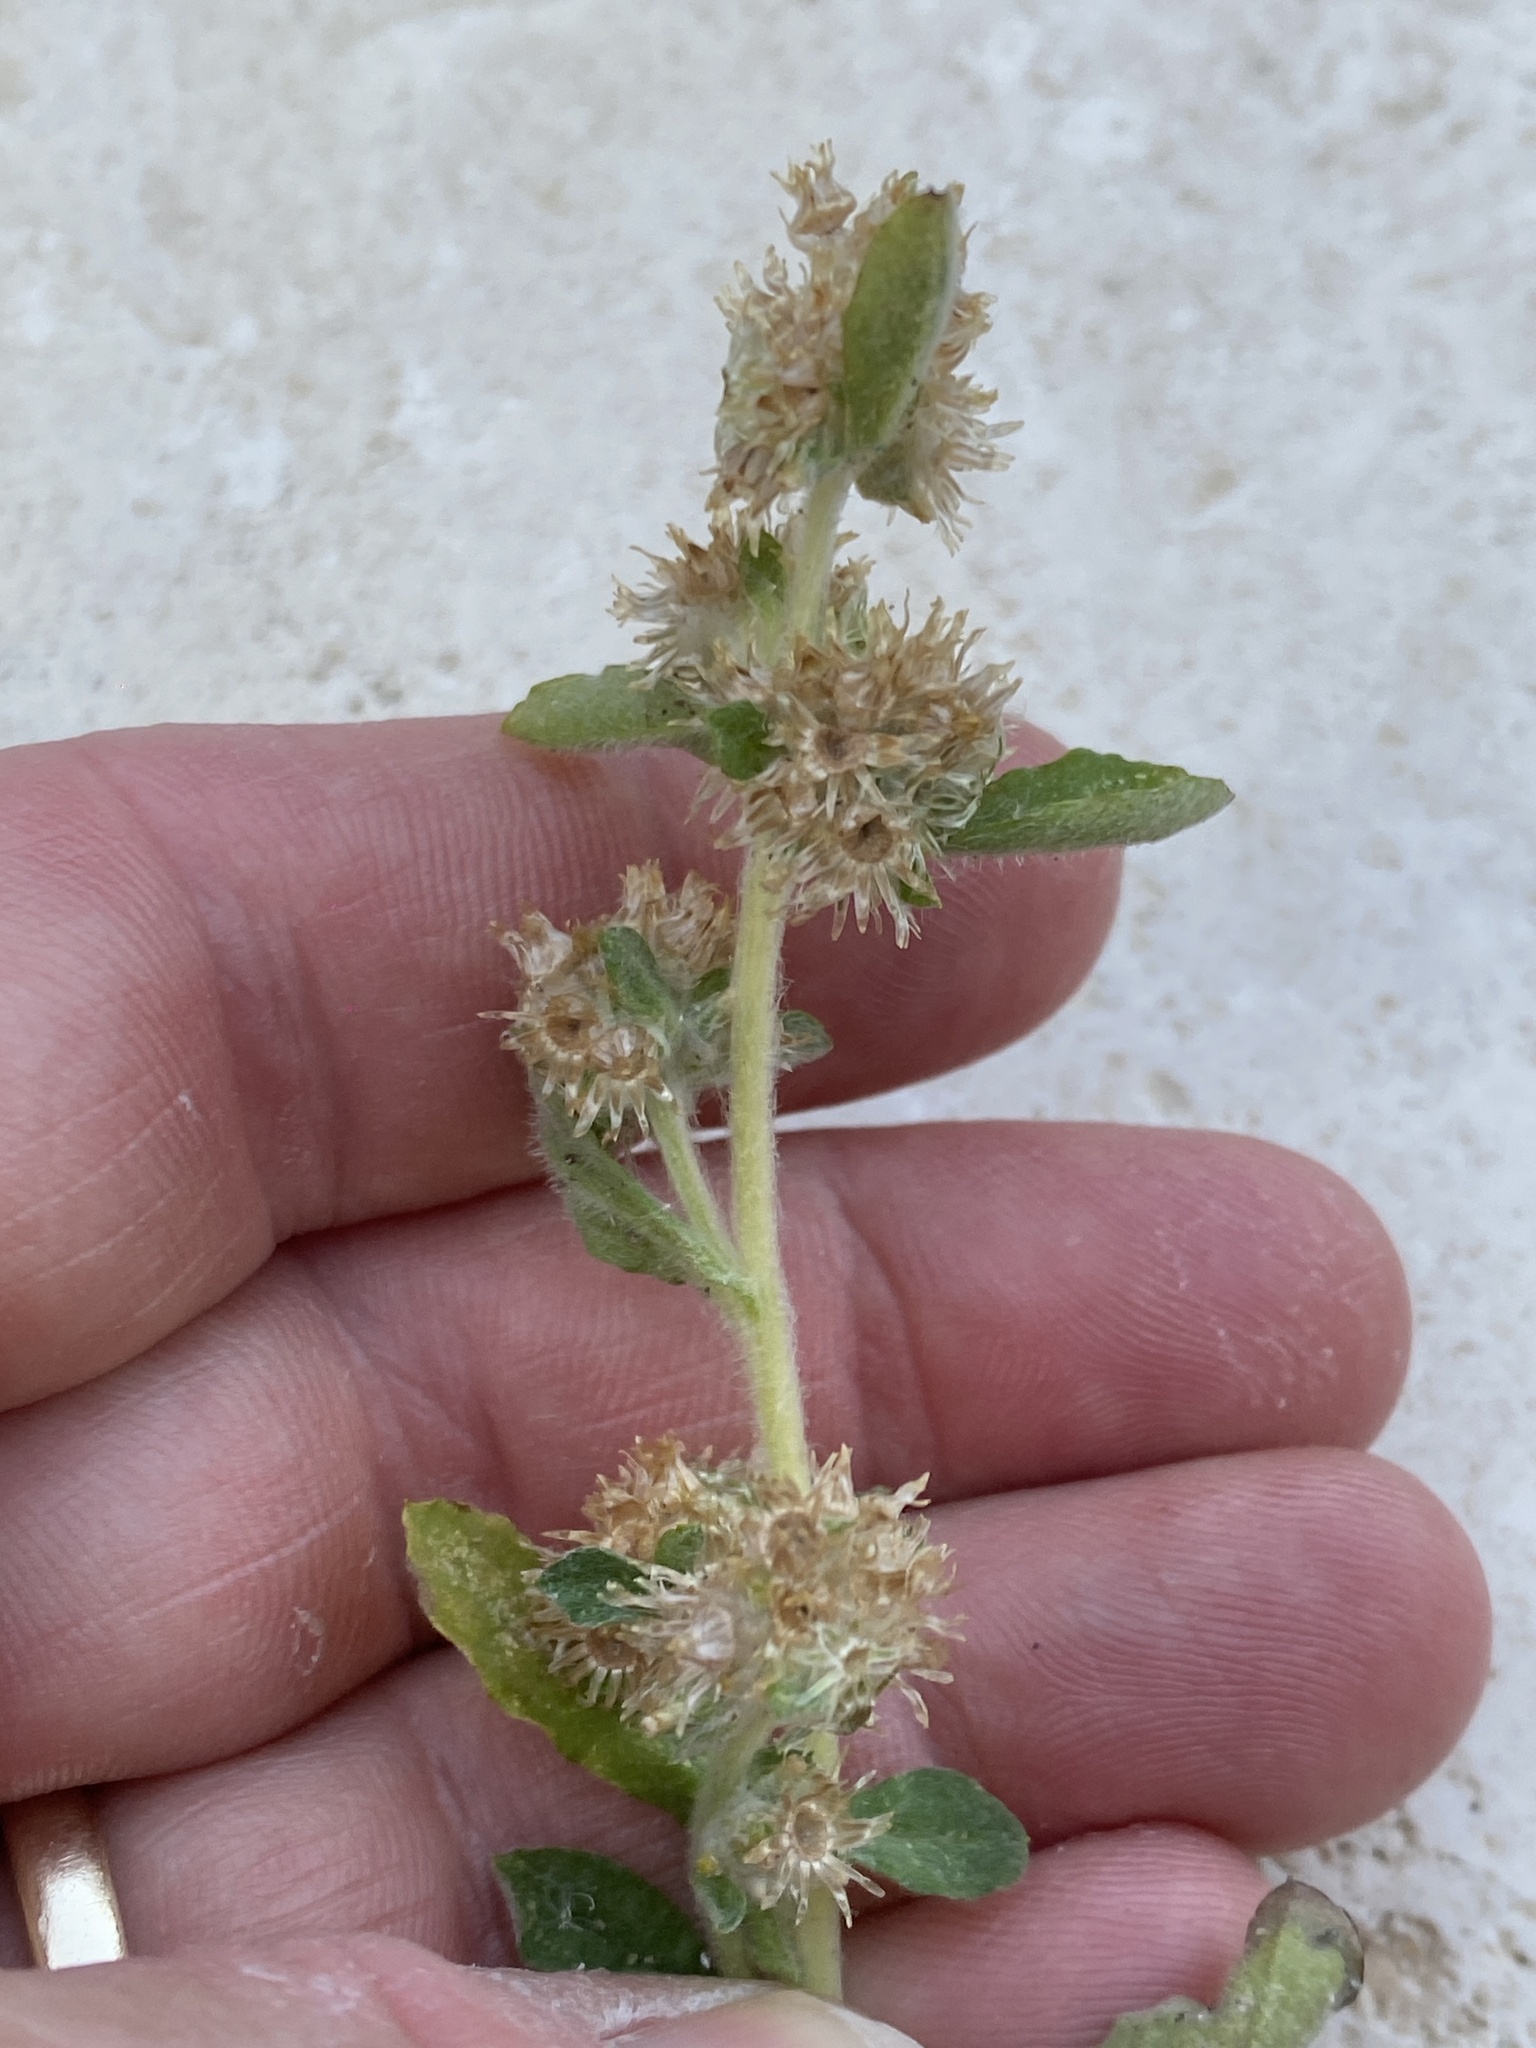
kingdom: Plantae
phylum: Tracheophyta
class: Magnoliopsida
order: Asterales
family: Asteraceae
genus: Gamochaeta
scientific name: Gamochaeta pensylvanica
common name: Pennsylvania everlasting
